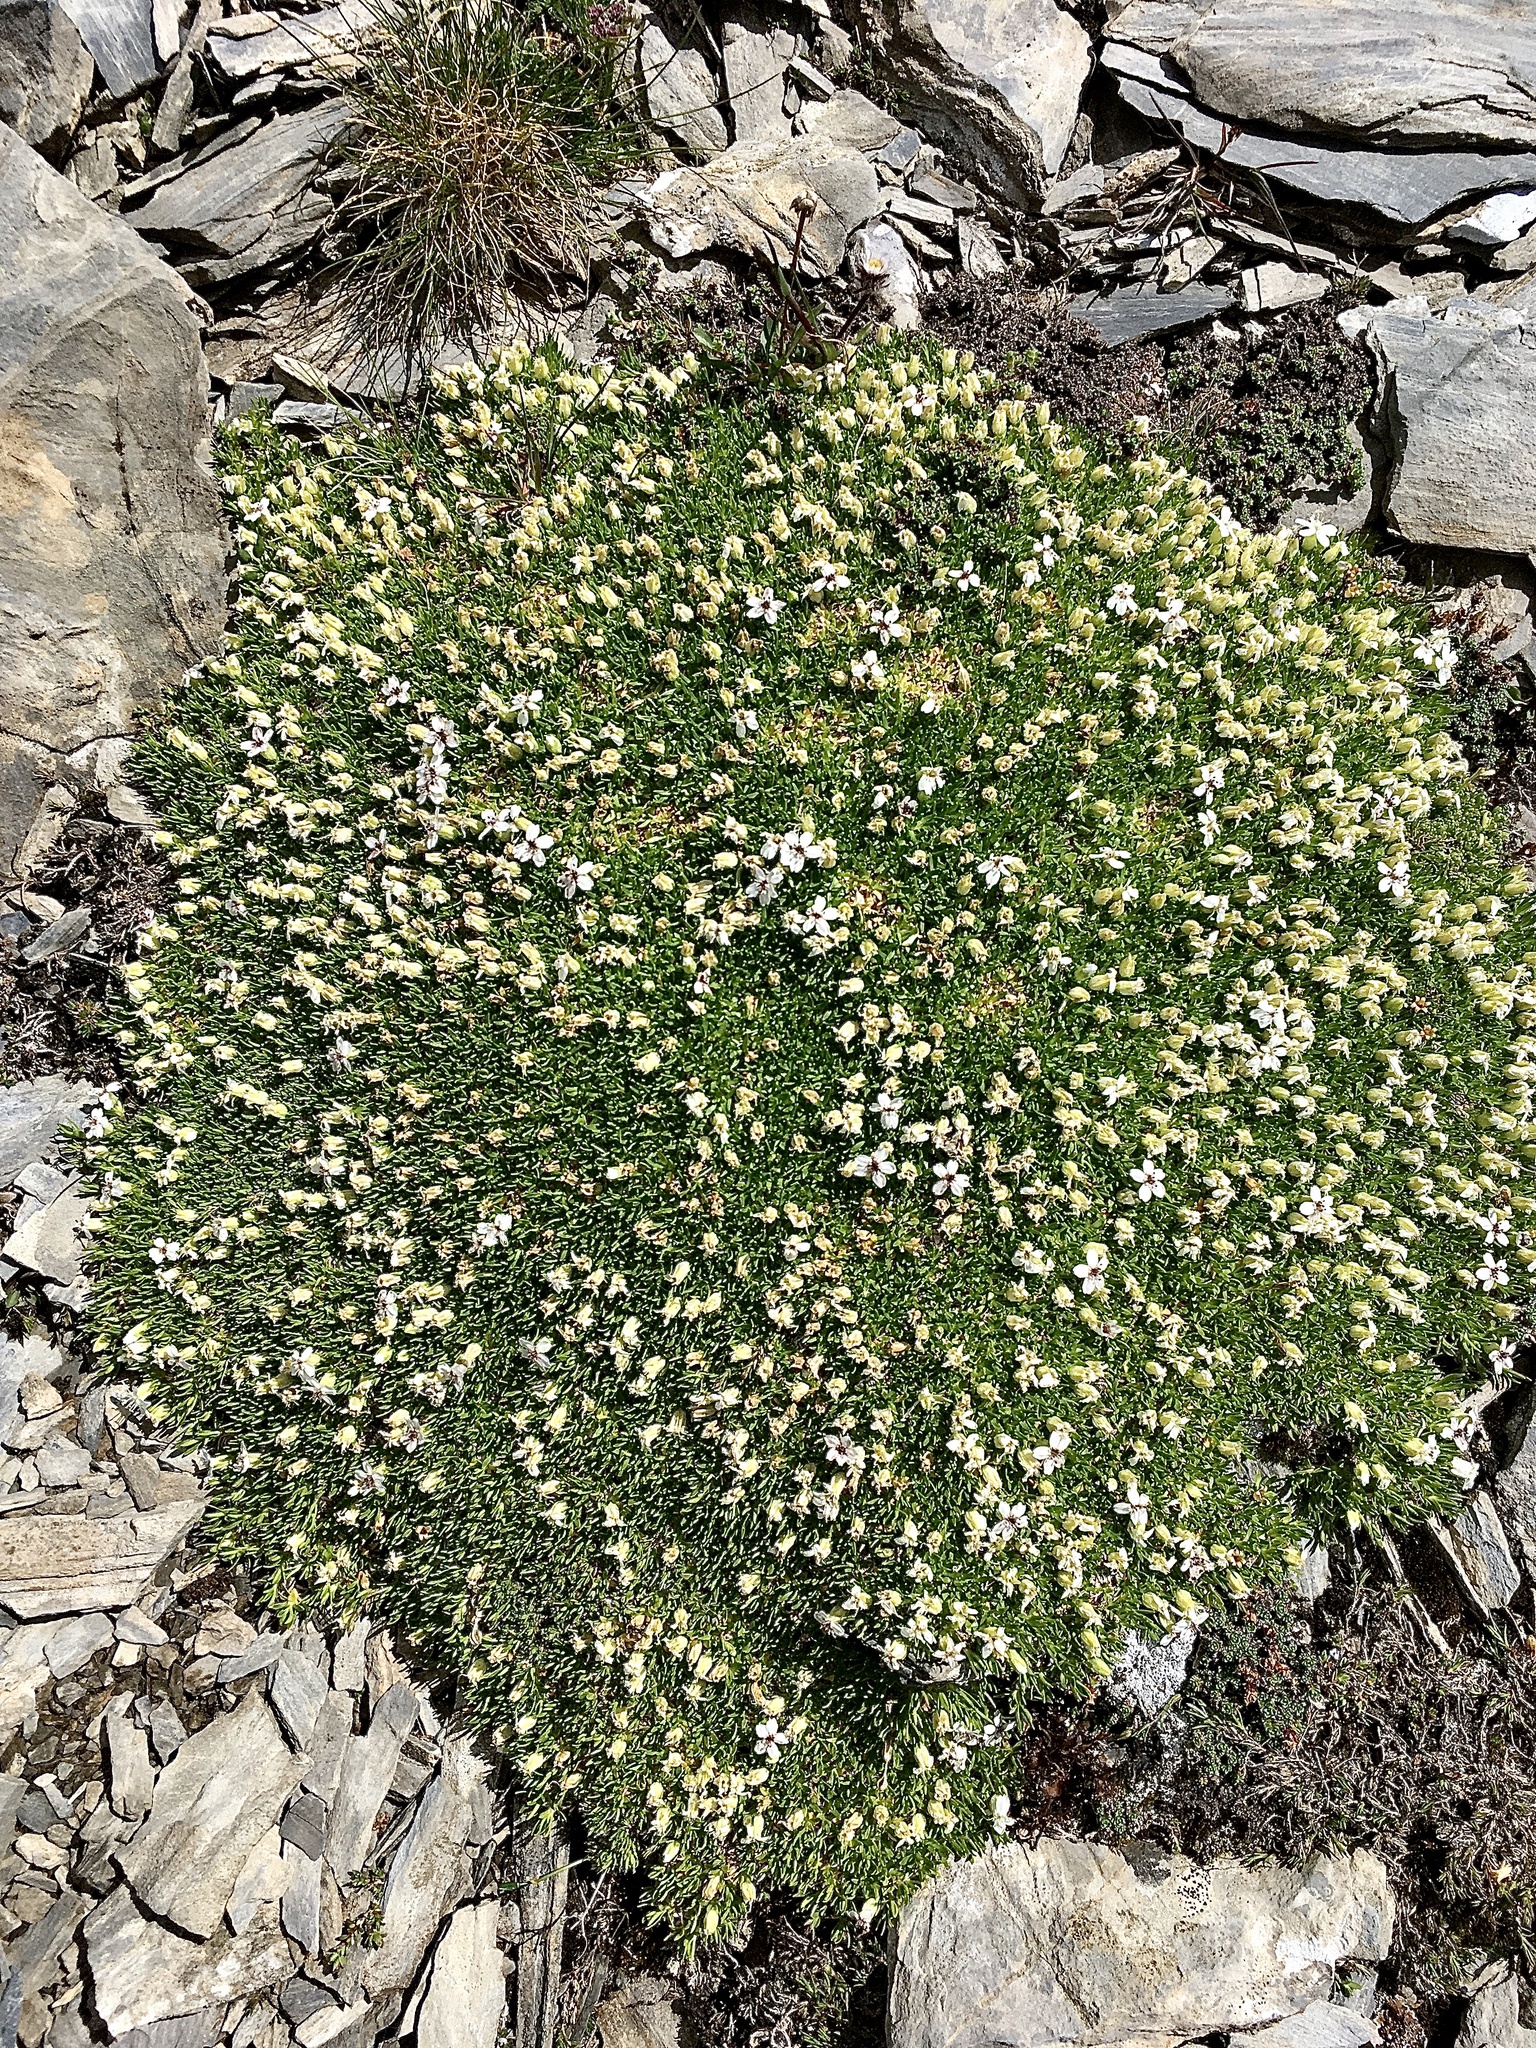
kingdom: Plantae
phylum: Tracheophyta
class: Magnoliopsida
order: Caryophyllales
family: Caryophyllaceae
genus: Silene
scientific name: Silene acaulis
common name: Moss campion
